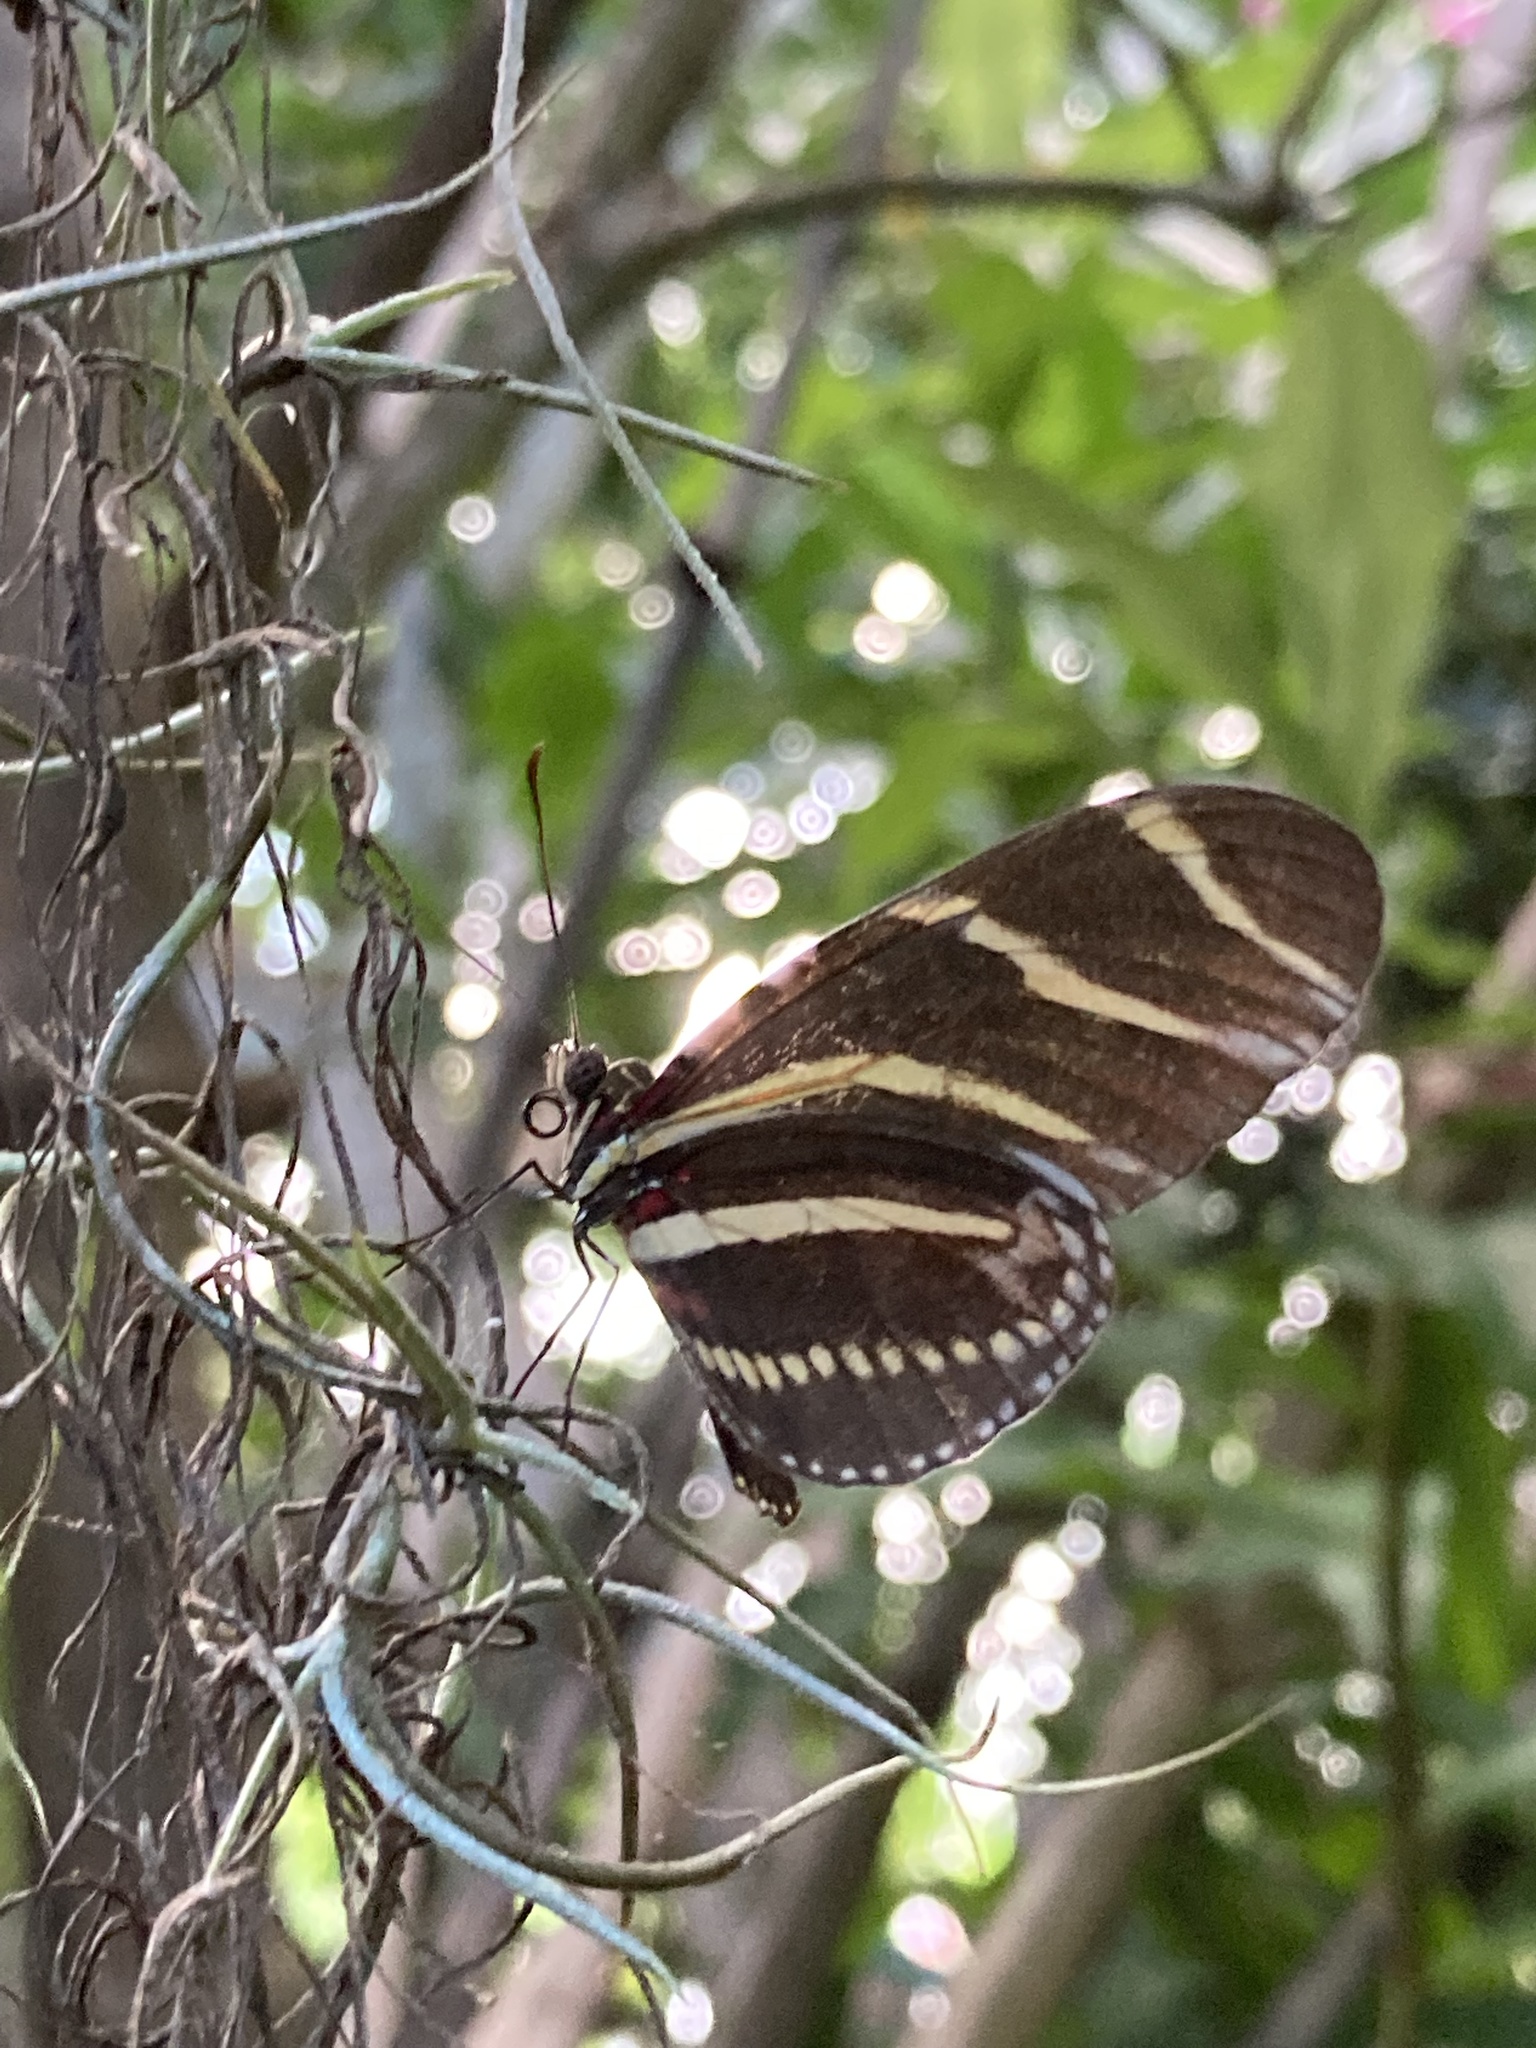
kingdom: Animalia
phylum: Arthropoda
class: Insecta
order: Lepidoptera
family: Nymphalidae
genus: Heliconius
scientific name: Heliconius charithonia
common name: Zebra long wing
